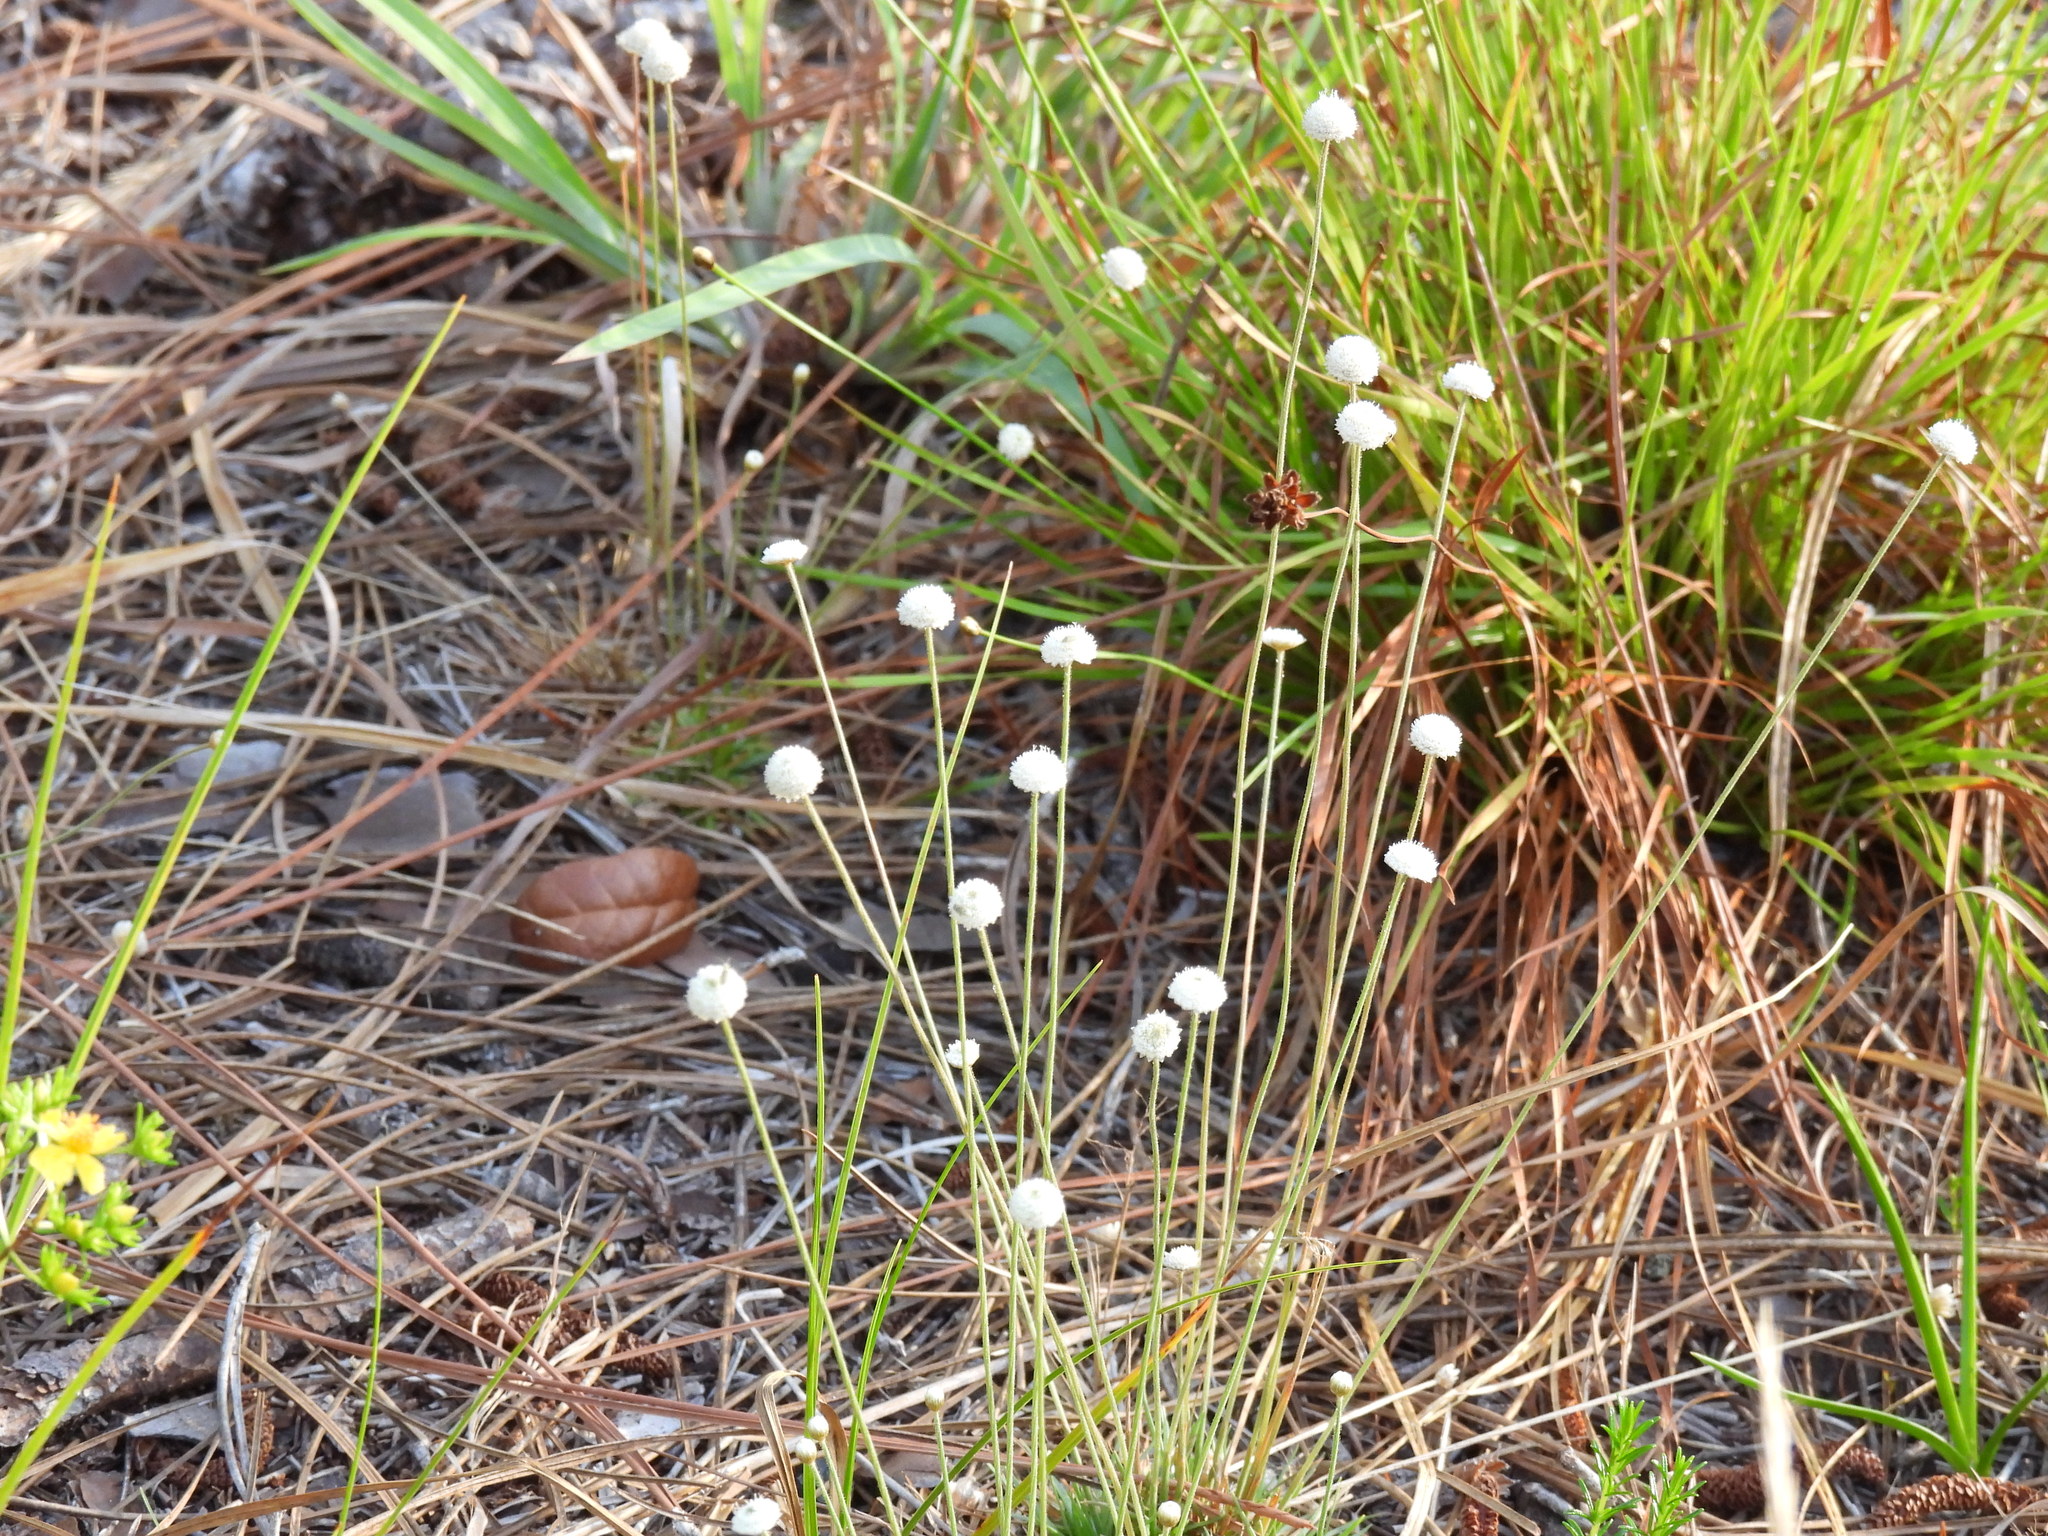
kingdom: Plantae
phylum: Tracheophyta
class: Liliopsida
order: Poales
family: Eriocaulaceae
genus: Syngonanthus
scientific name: Syngonanthus flavidulus
